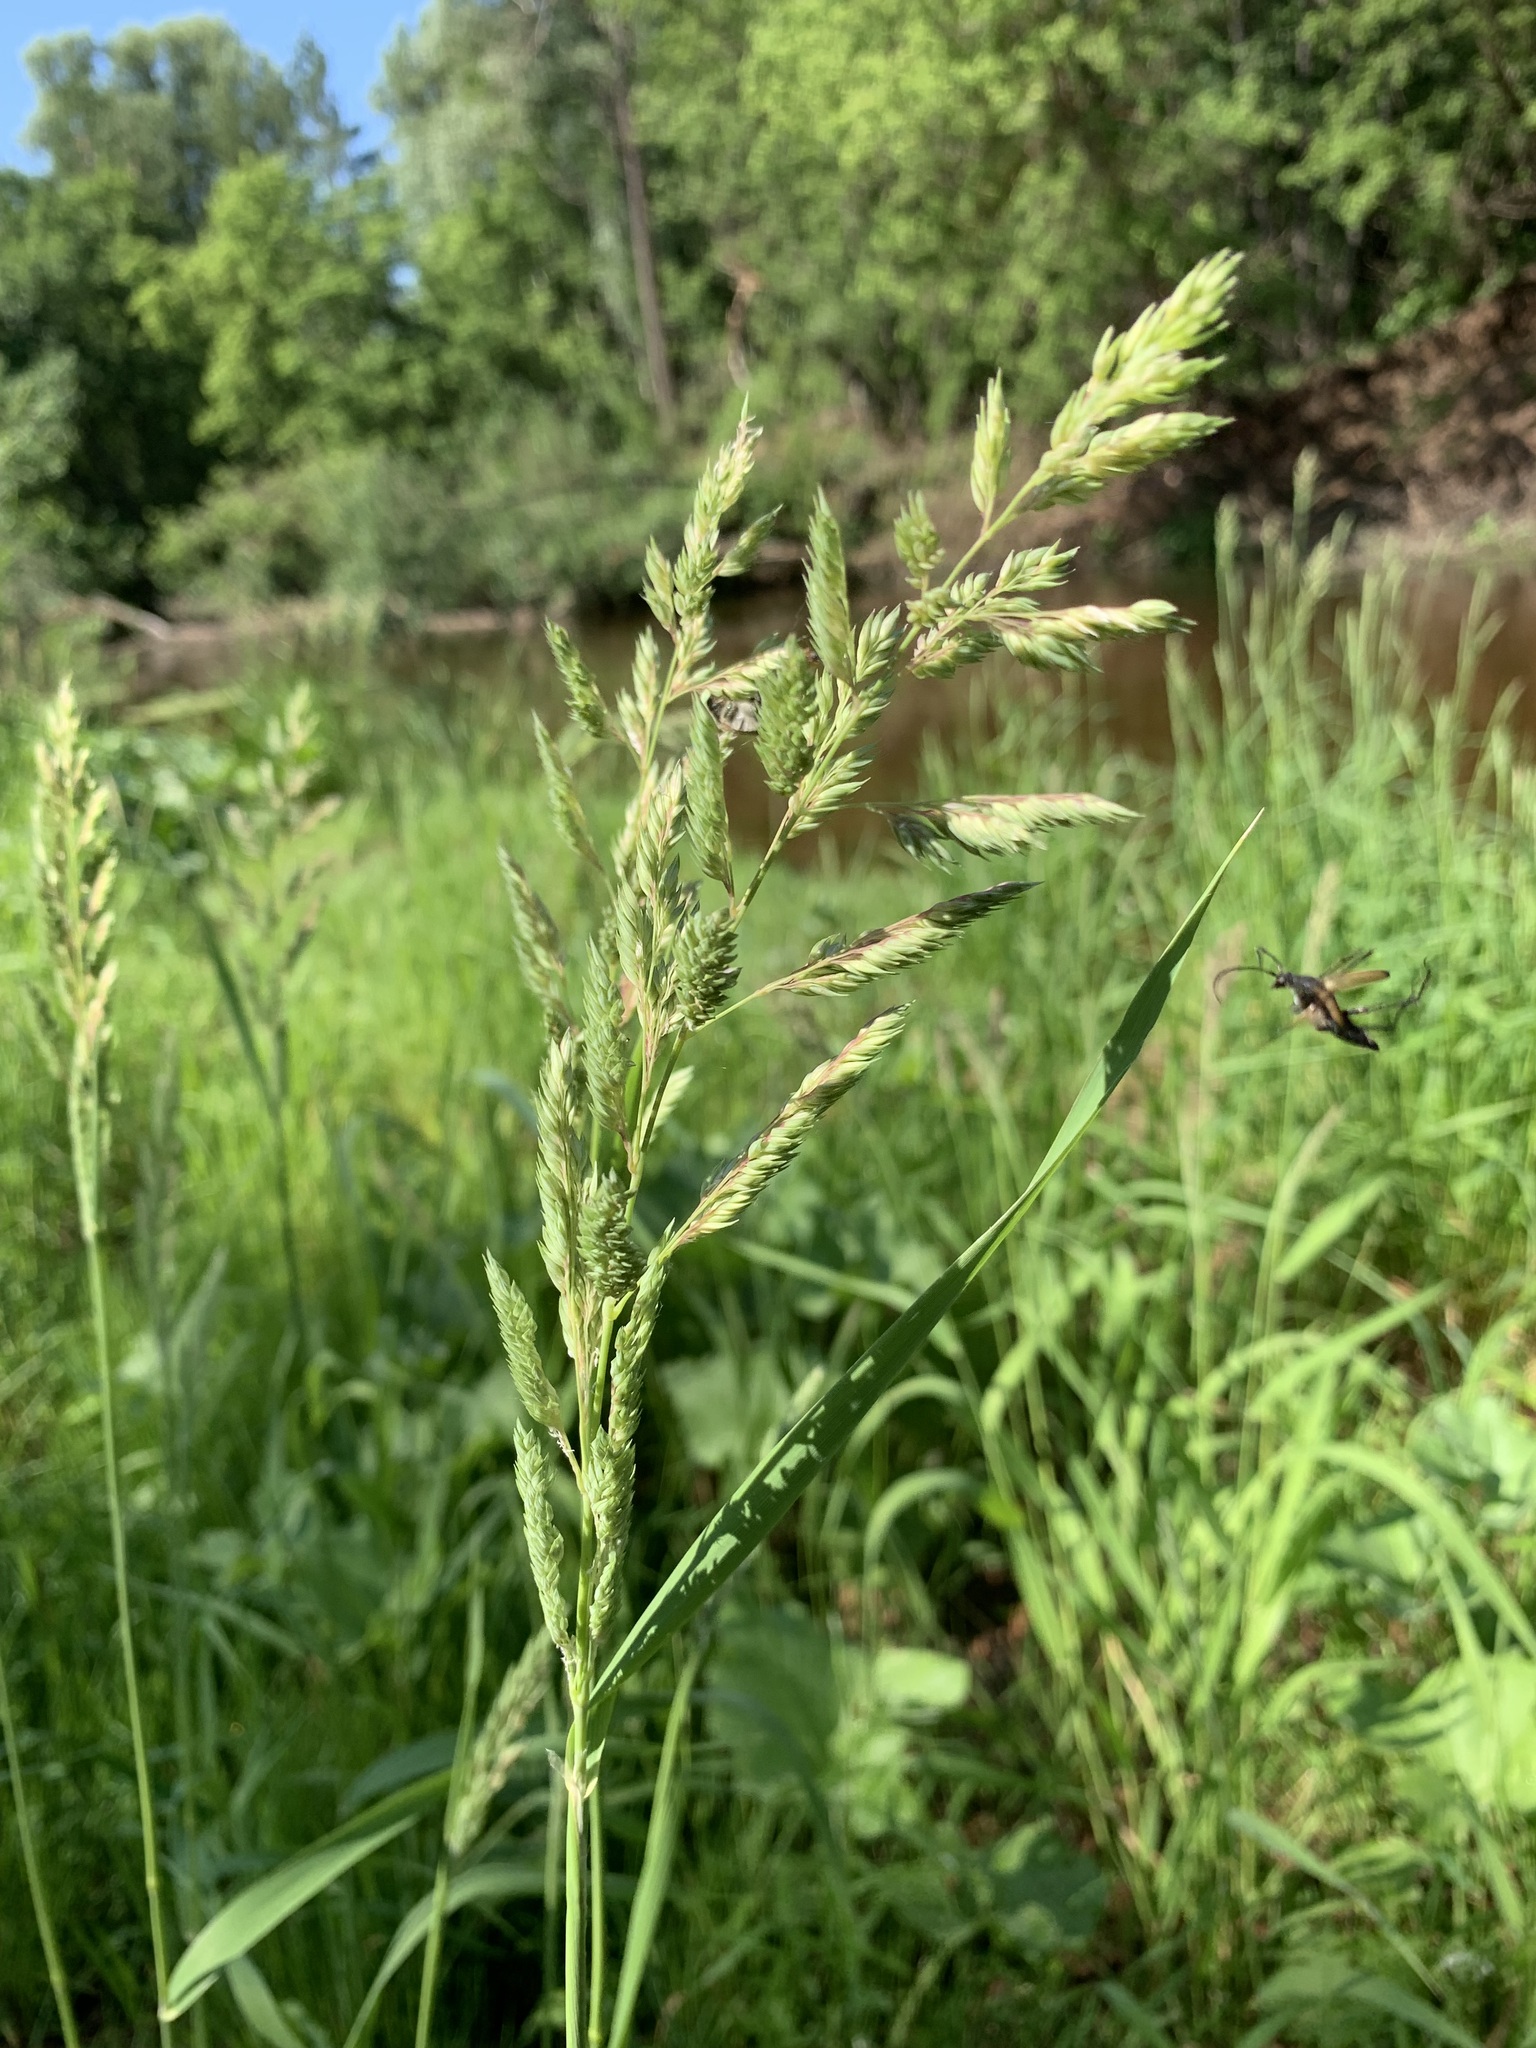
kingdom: Plantae
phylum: Tracheophyta
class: Liliopsida
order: Poales
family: Poaceae
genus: Phalaris
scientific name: Phalaris arundinacea
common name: Reed canary-grass
